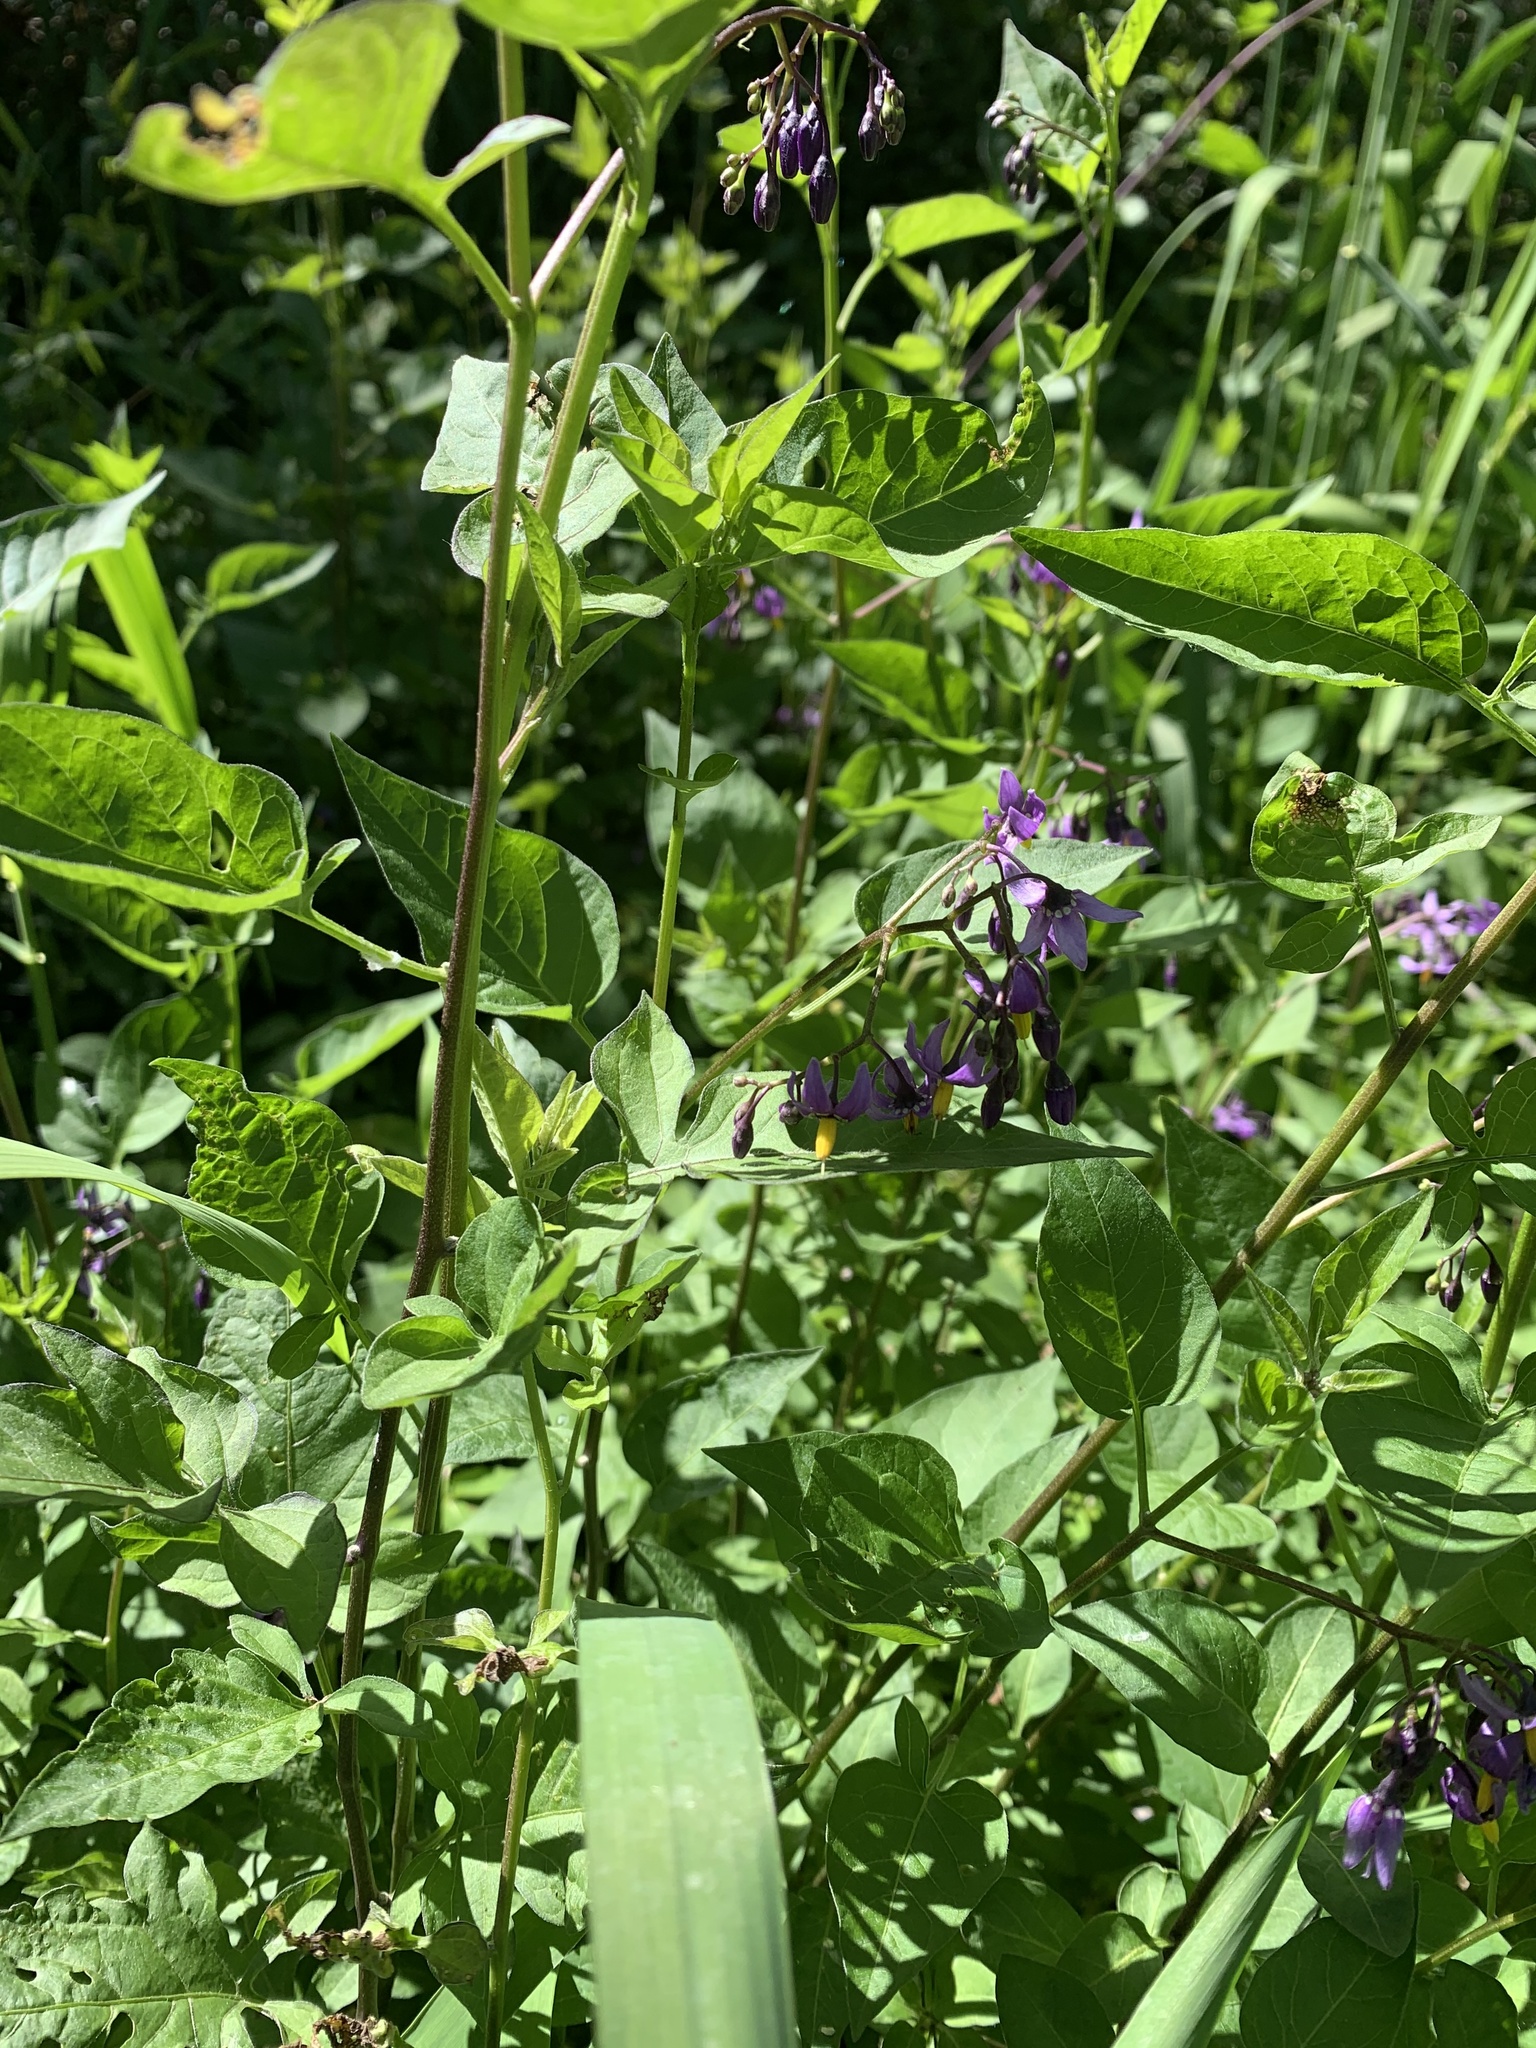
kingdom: Plantae
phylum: Tracheophyta
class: Magnoliopsida
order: Solanales
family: Solanaceae
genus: Solanum
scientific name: Solanum dulcamara
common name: Climbing nightshade
